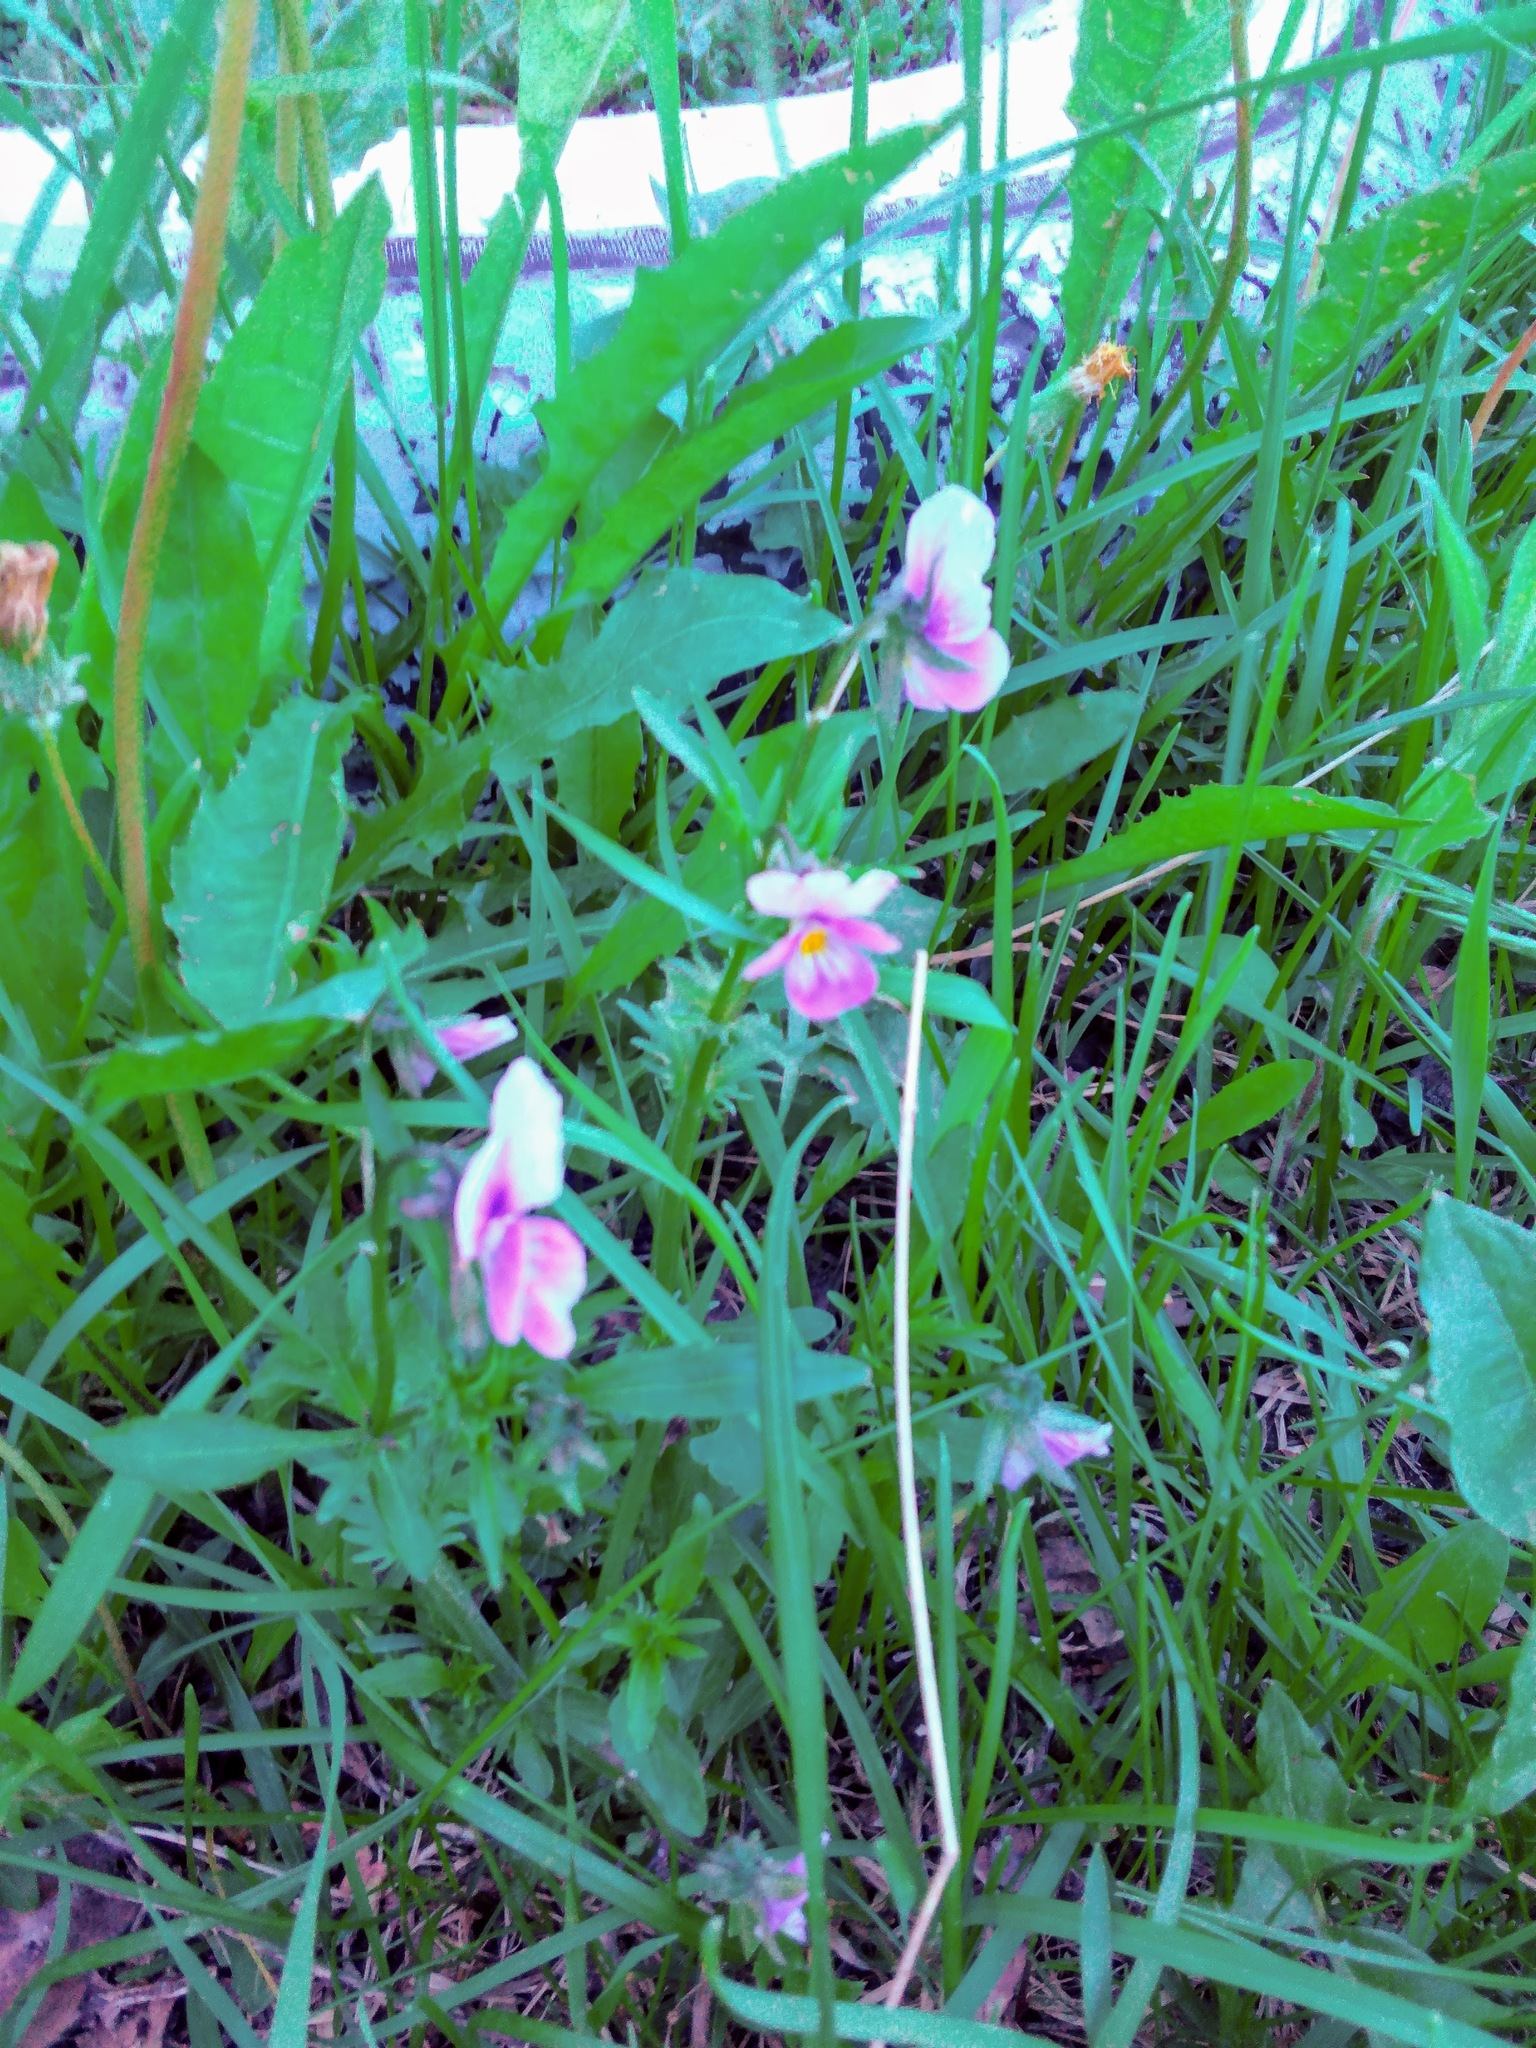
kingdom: Plantae
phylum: Tracheophyta
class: Magnoliopsida
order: Malpighiales
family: Violaceae
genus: Viola
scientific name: Viola tricolor
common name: Pansy
